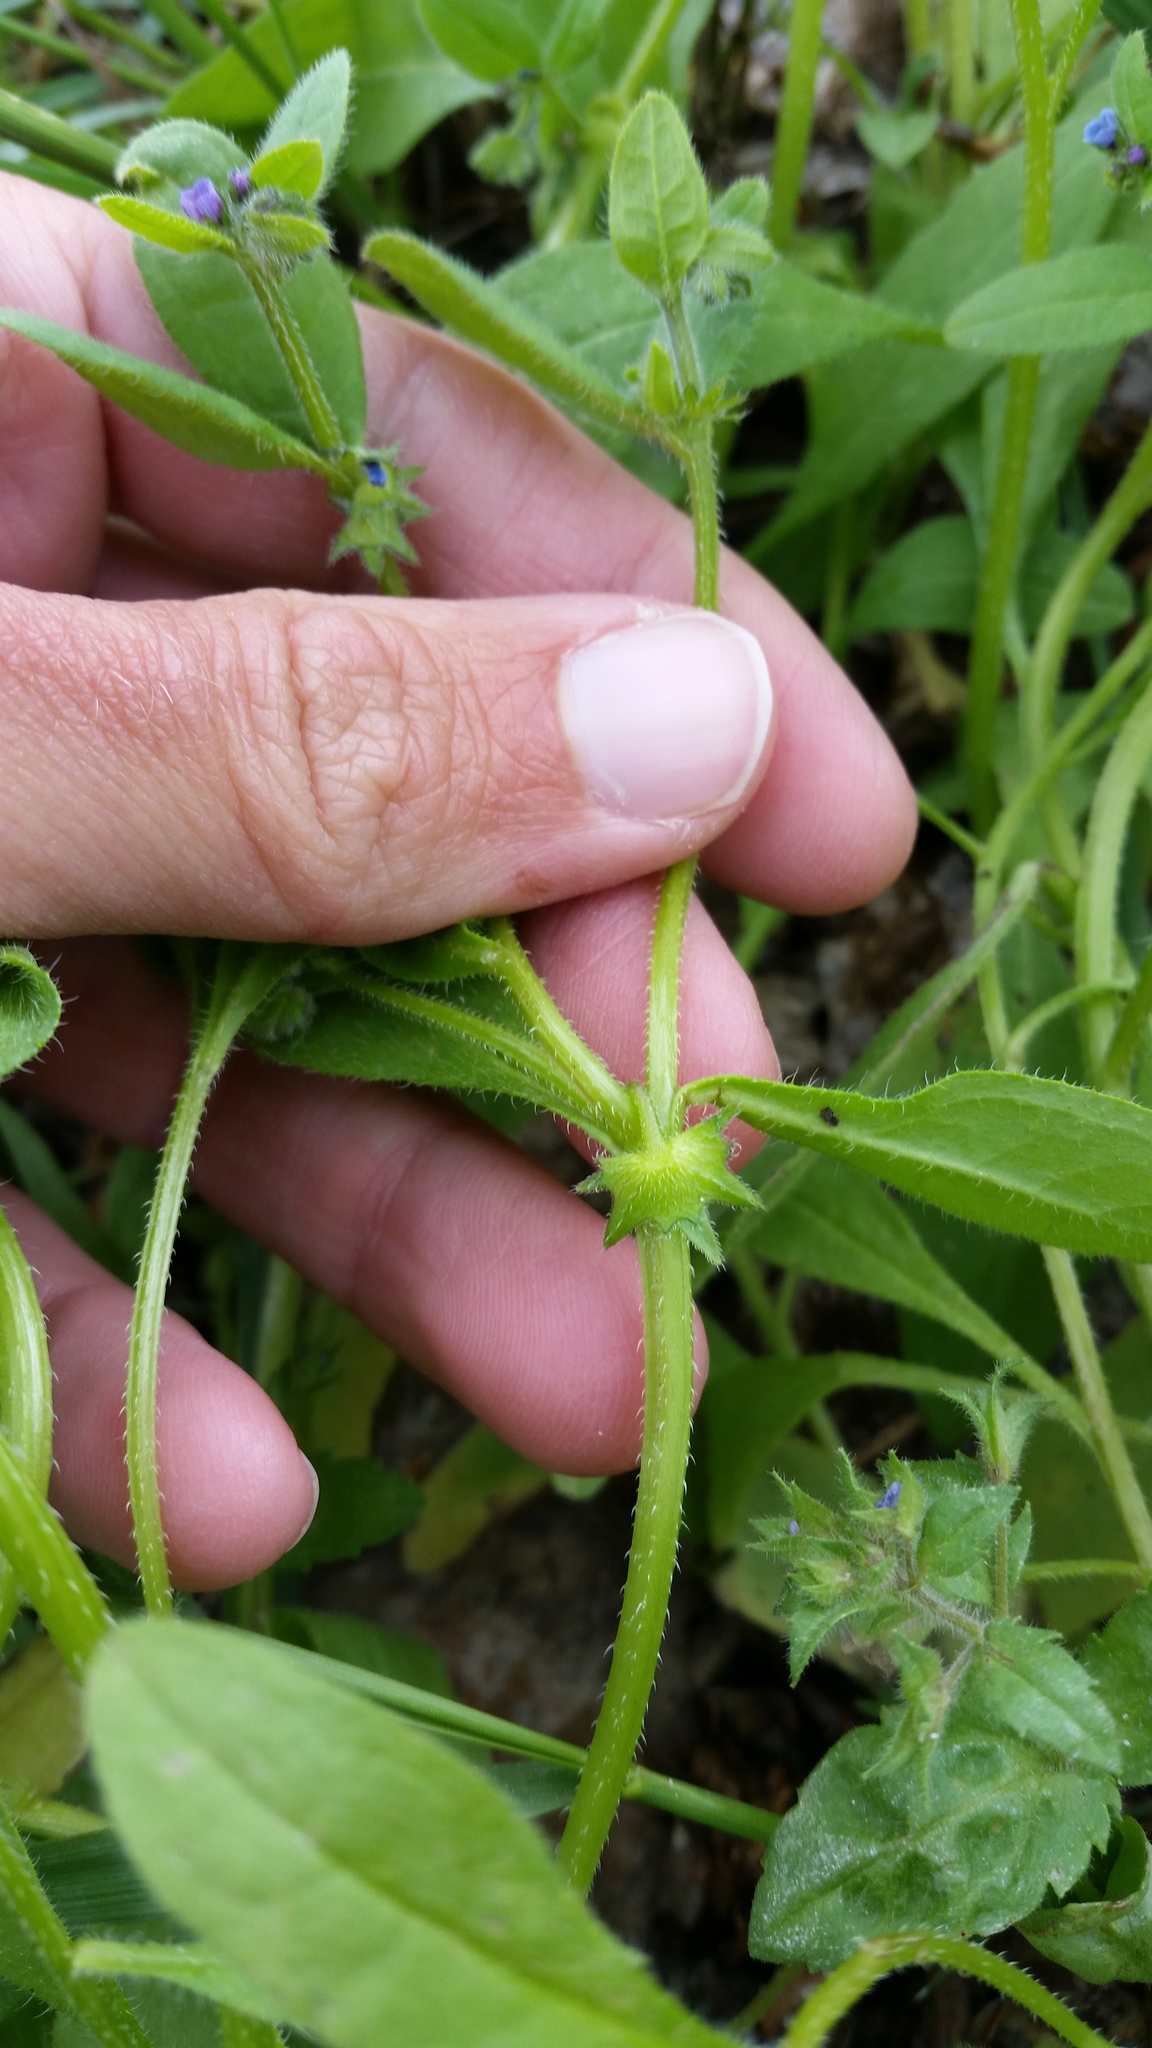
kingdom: Plantae
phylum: Tracheophyta
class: Magnoliopsida
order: Boraginales
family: Boraginaceae
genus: Asperugo
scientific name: Asperugo procumbens
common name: Madwort
